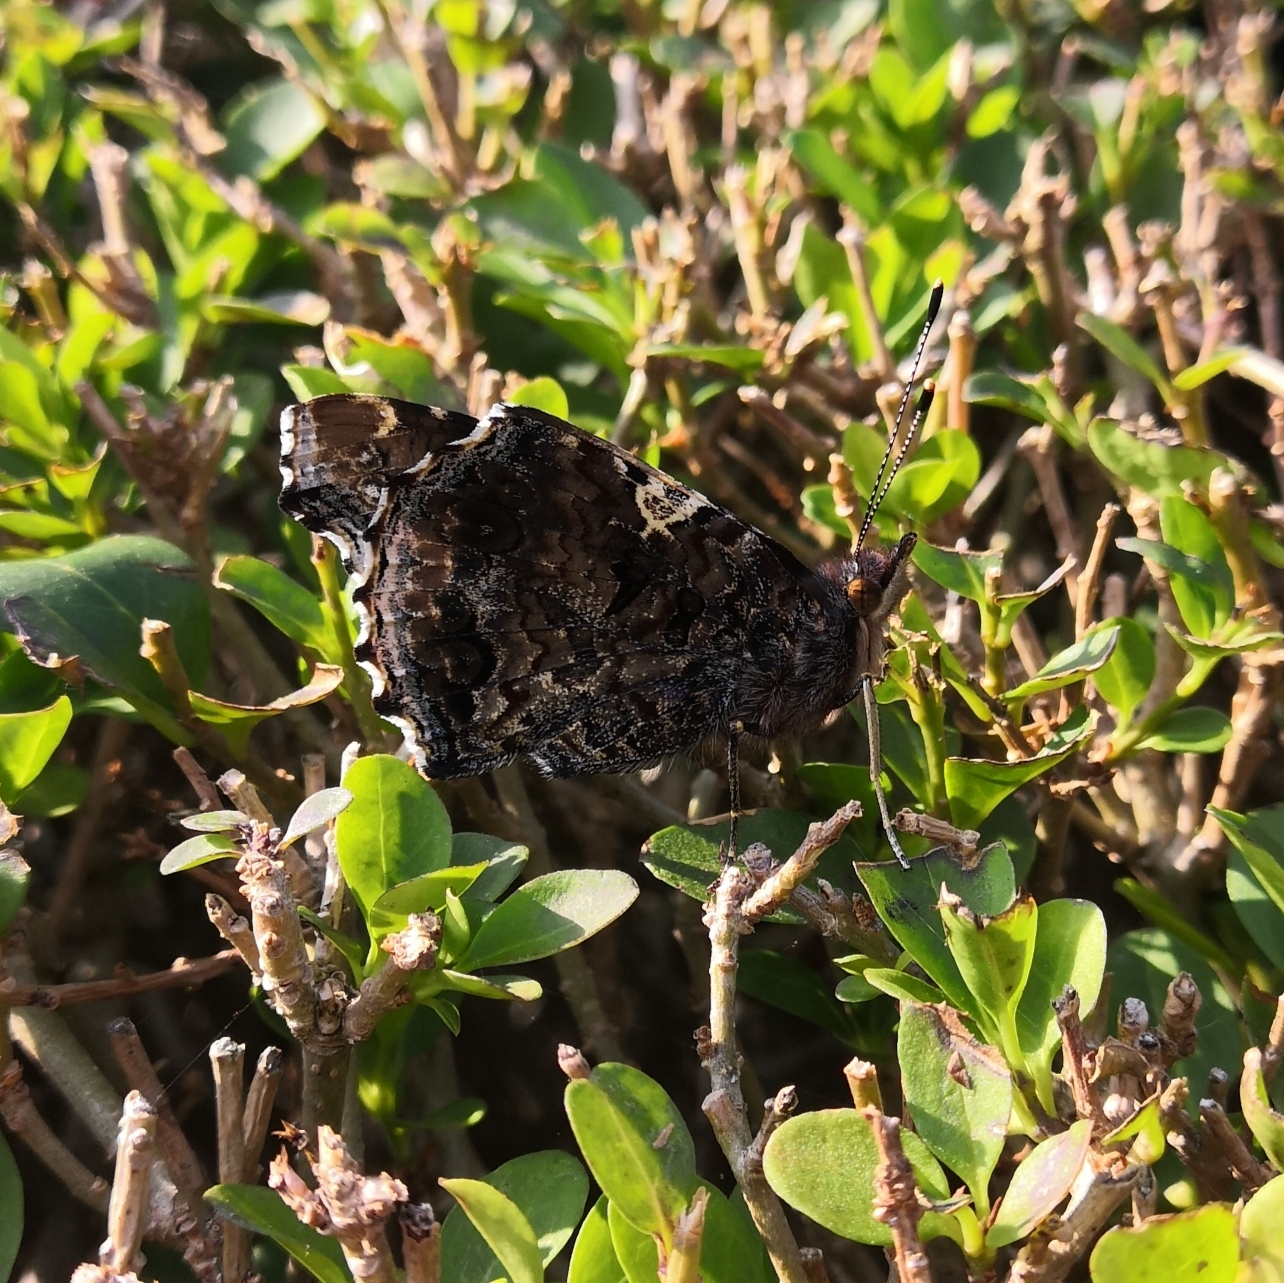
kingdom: Animalia
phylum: Arthropoda
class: Insecta
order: Lepidoptera
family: Nymphalidae
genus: Vanessa
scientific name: Vanessa atalanta
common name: Red admiral
